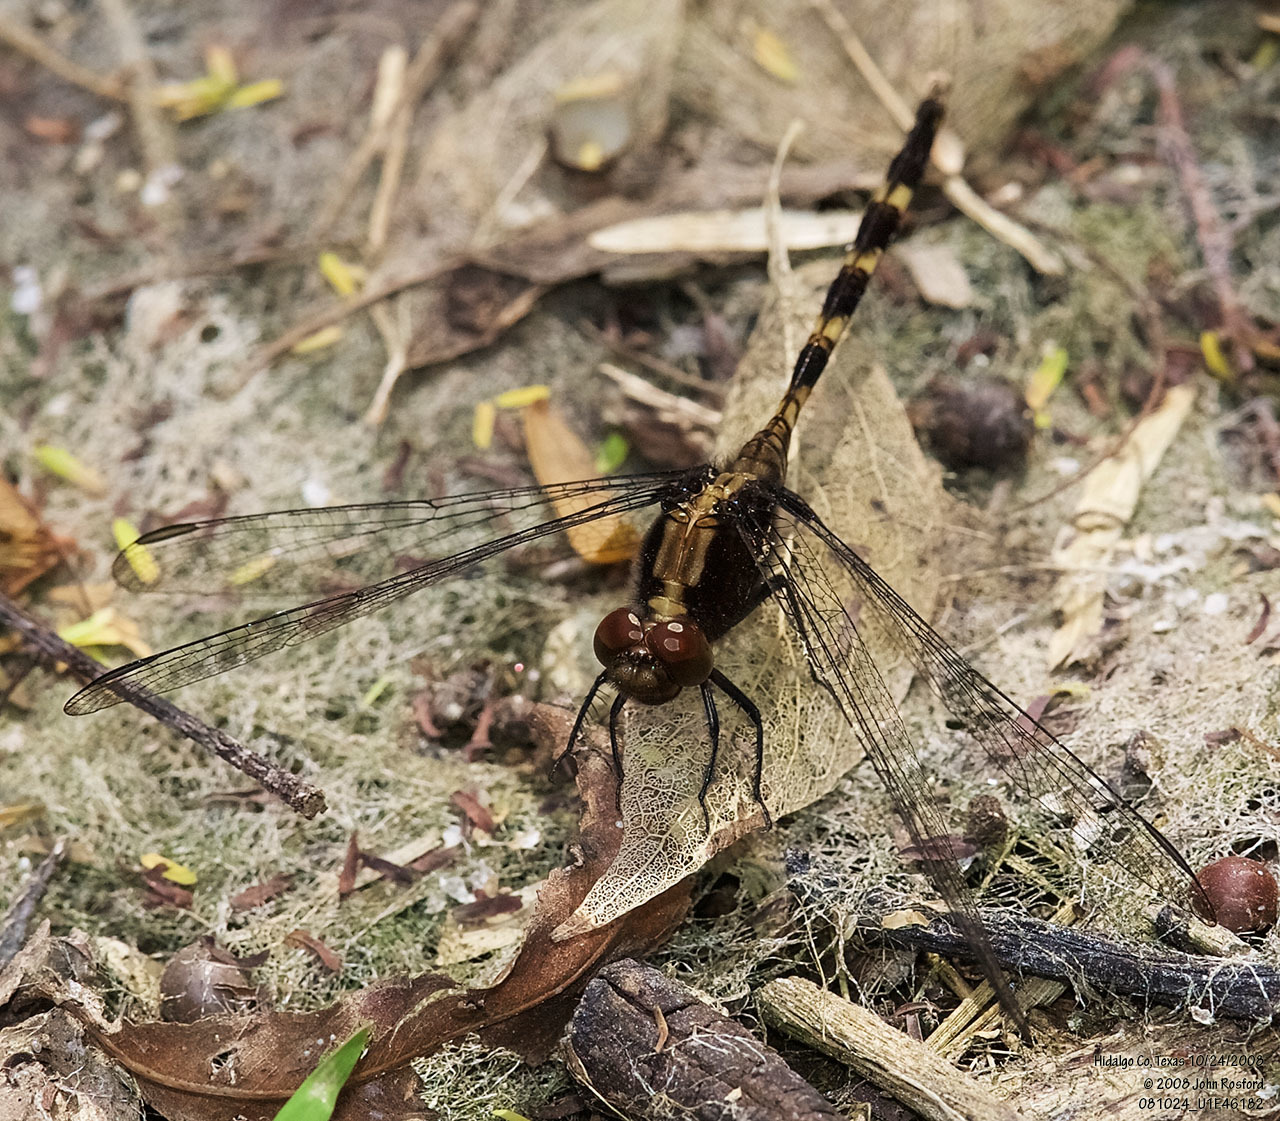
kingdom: Animalia
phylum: Arthropoda
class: Insecta
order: Odonata
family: Libellulidae
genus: Erythemis
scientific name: Erythemis plebeja
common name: Pin-tailed pondhawk
